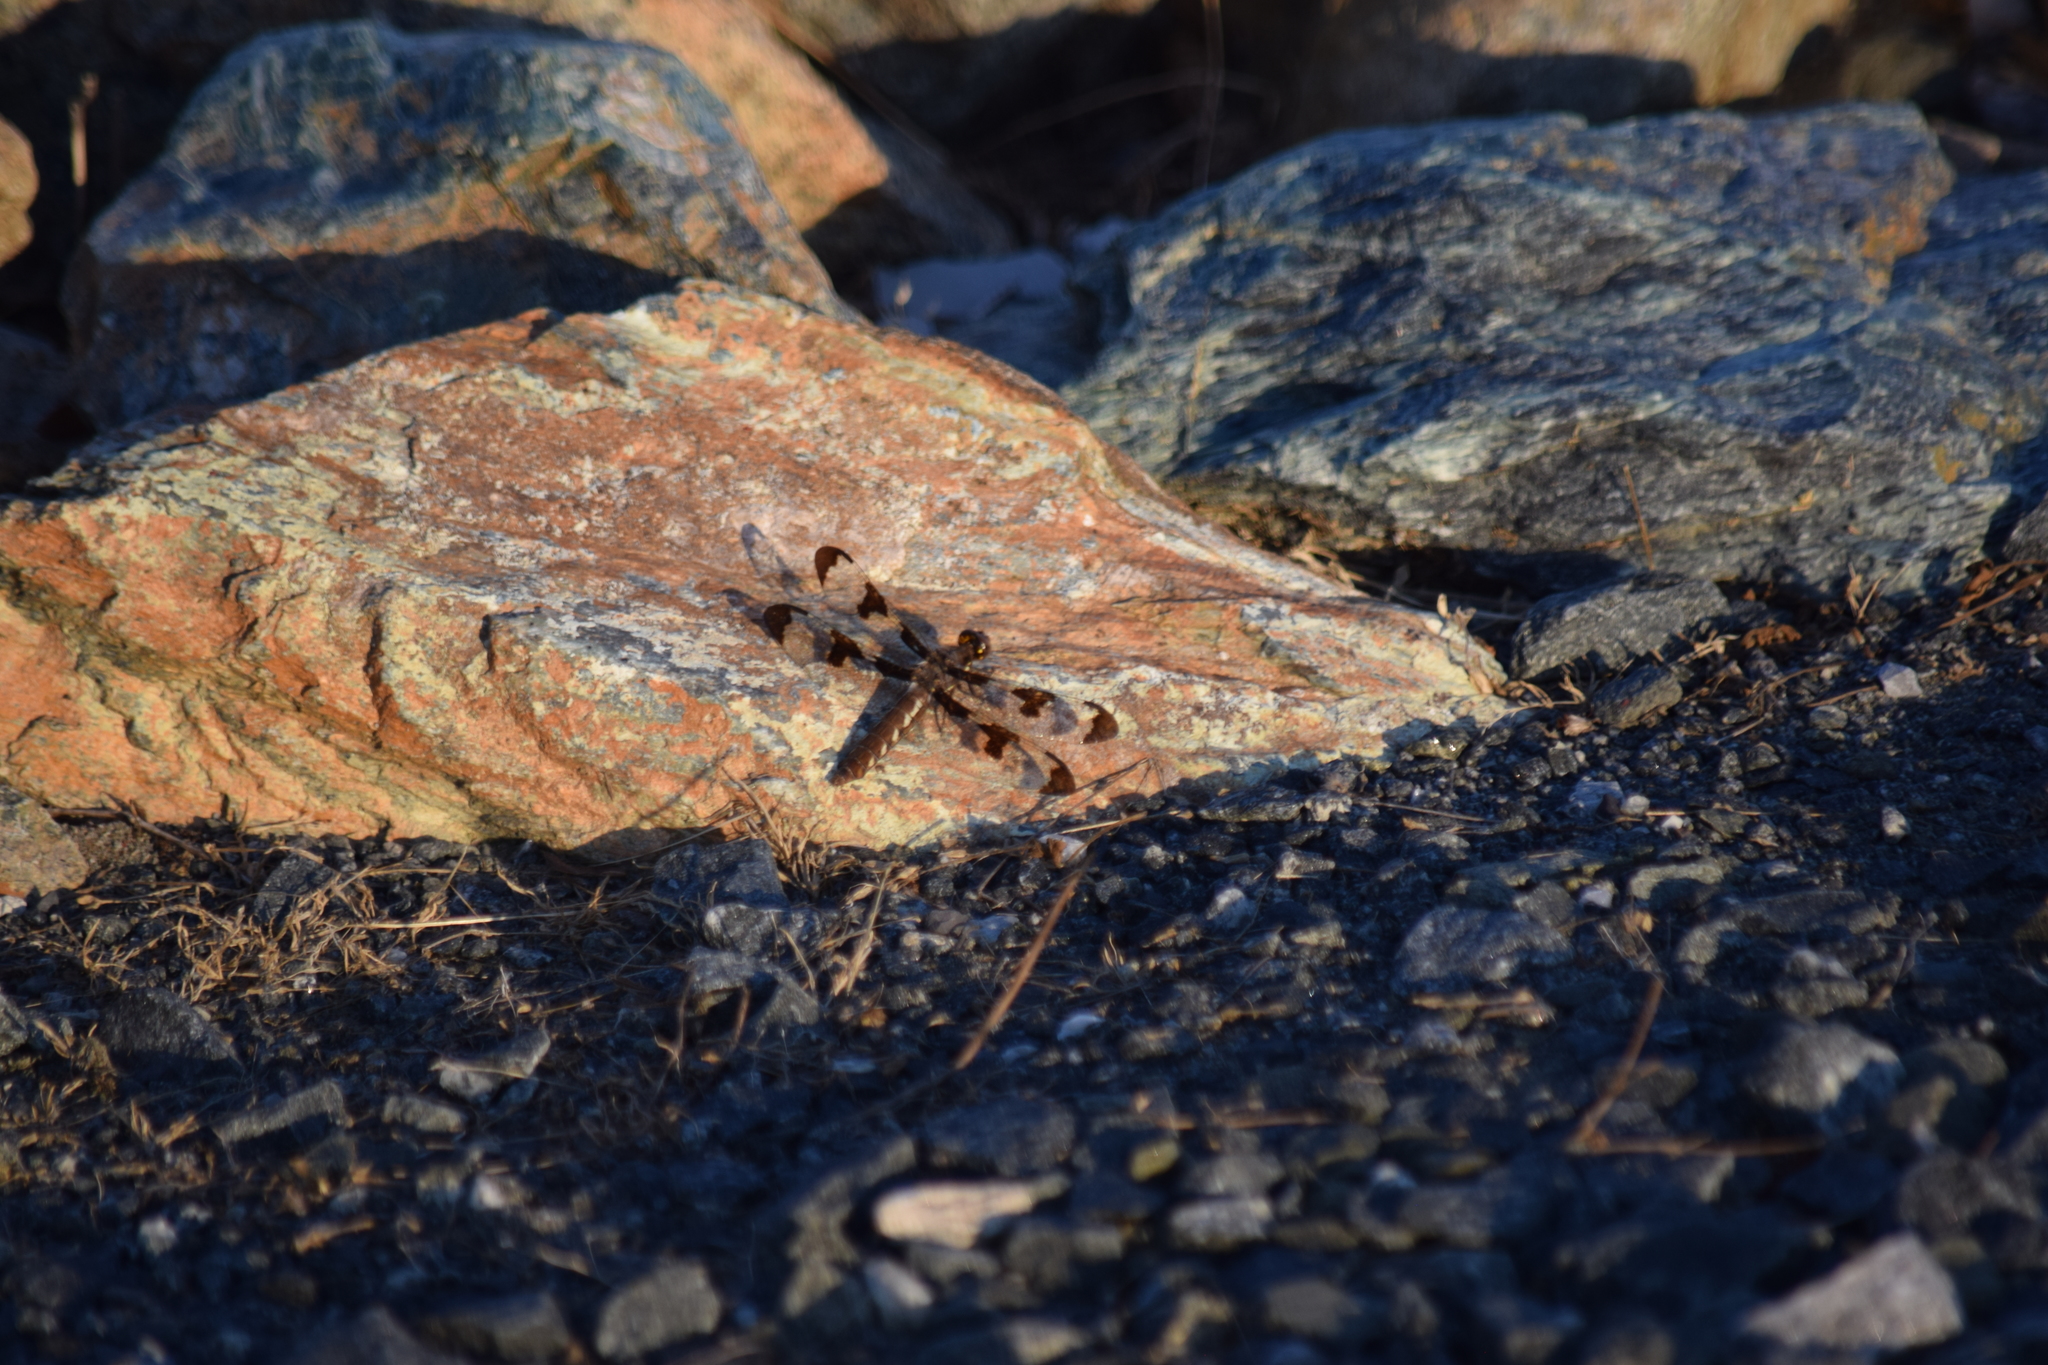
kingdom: Animalia
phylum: Arthropoda
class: Insecta
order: Odonata
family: Libellulidae
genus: Plathemis
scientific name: Plathemis lydia
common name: Common whitetail
